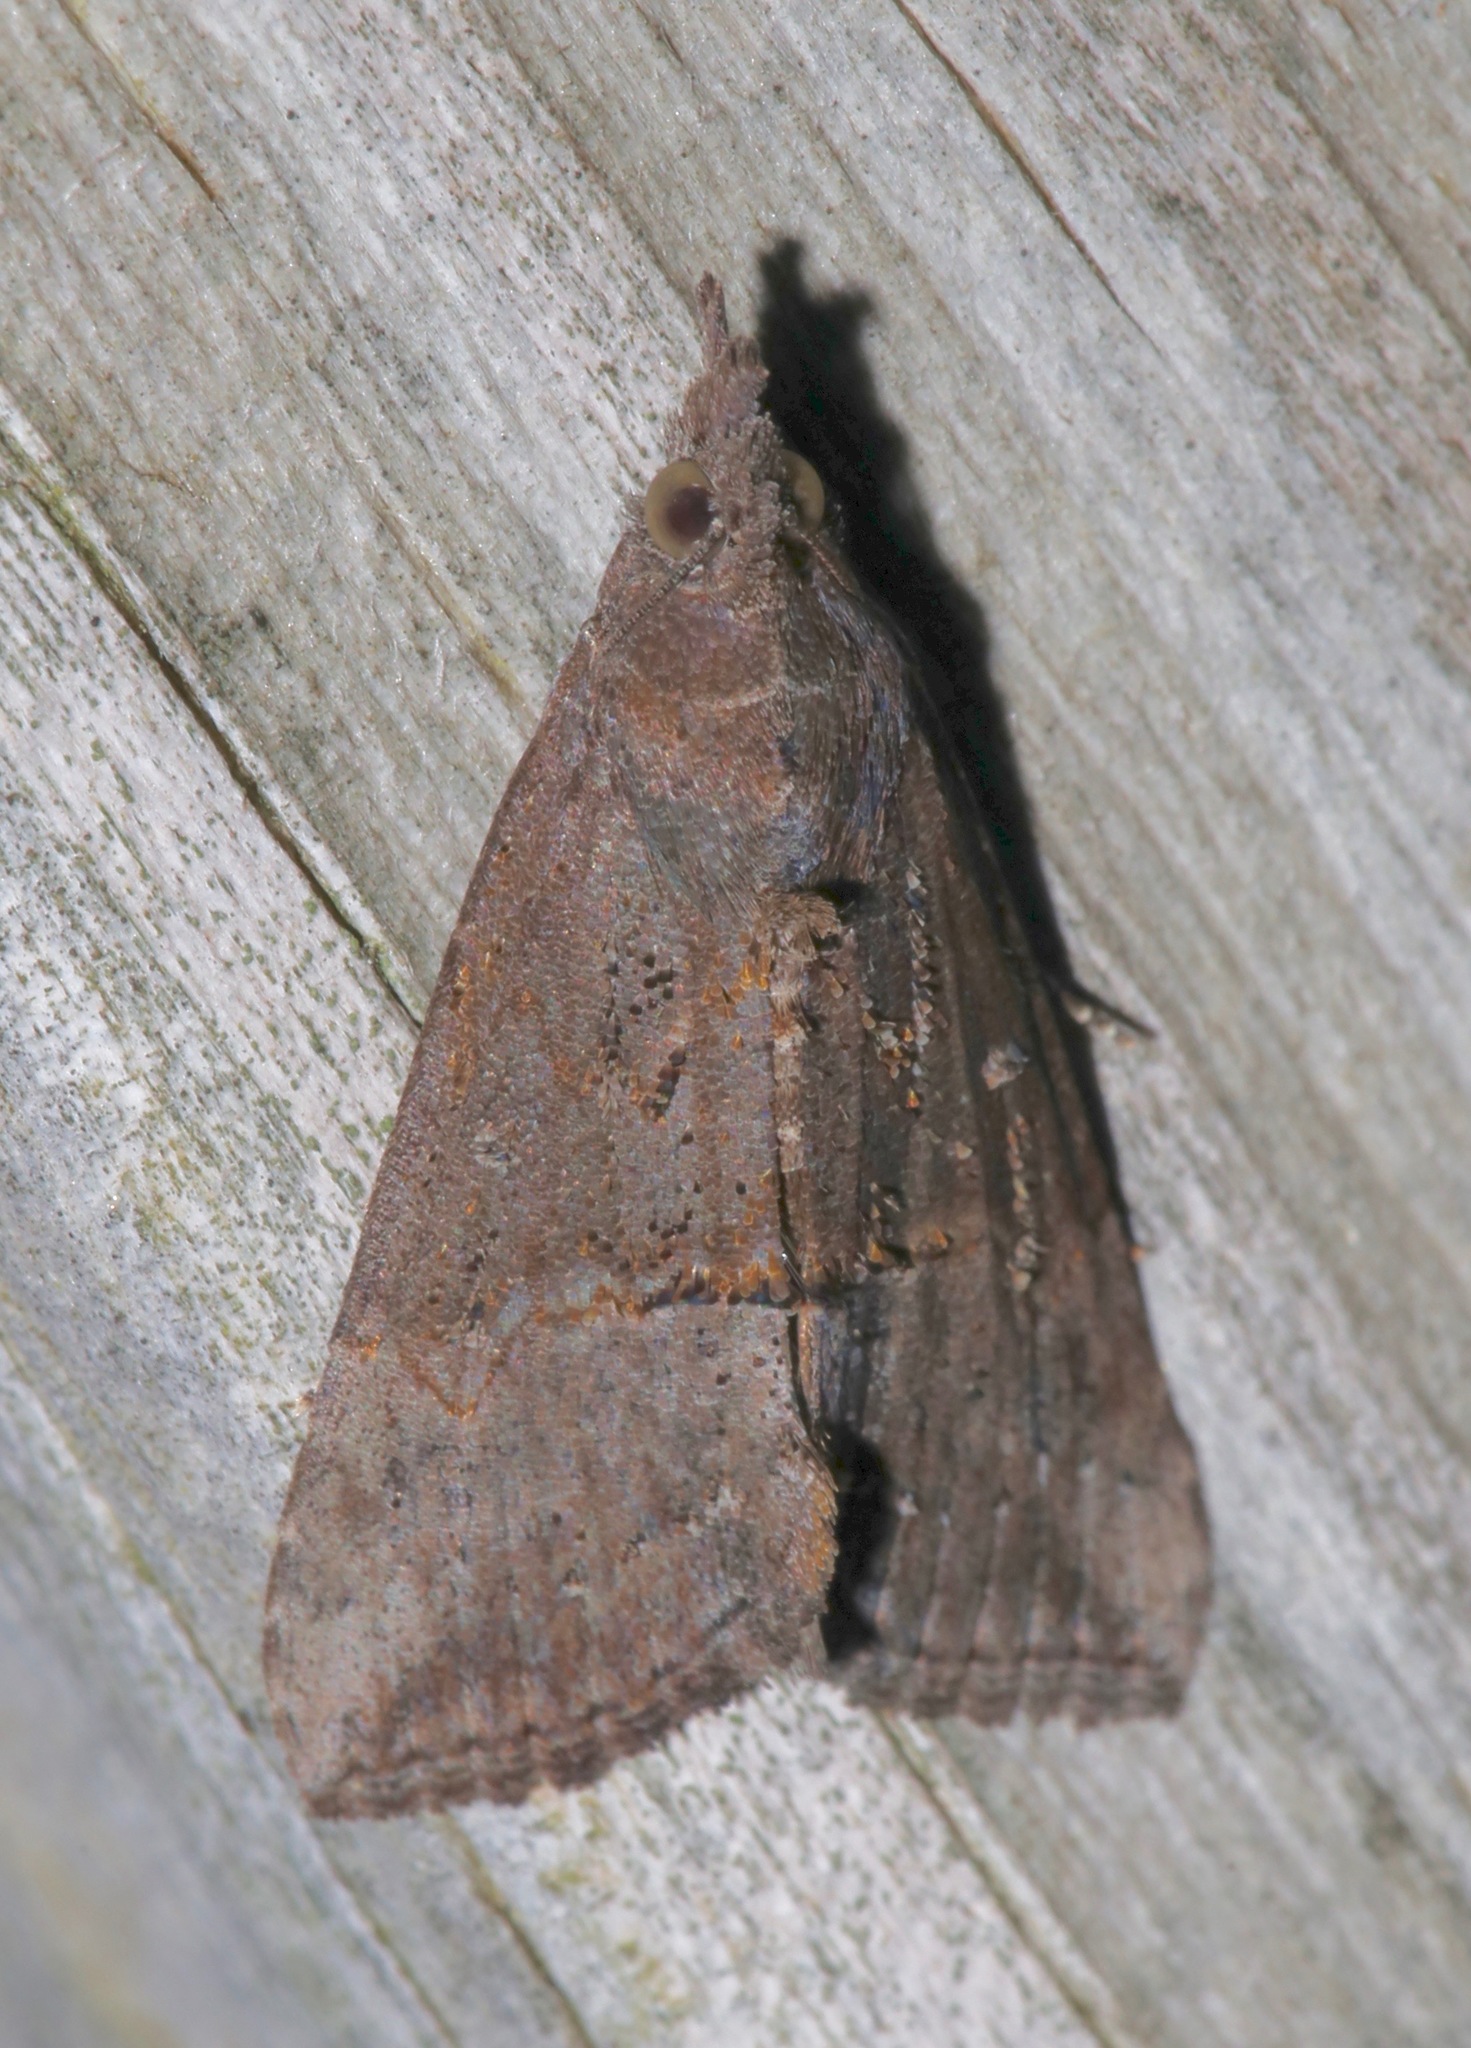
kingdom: Animalia
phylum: Arthropoda
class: Insecta
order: Lepidoptera
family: Erebidae
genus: Hypena
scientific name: Hypena scabra
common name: Green cloverworm
